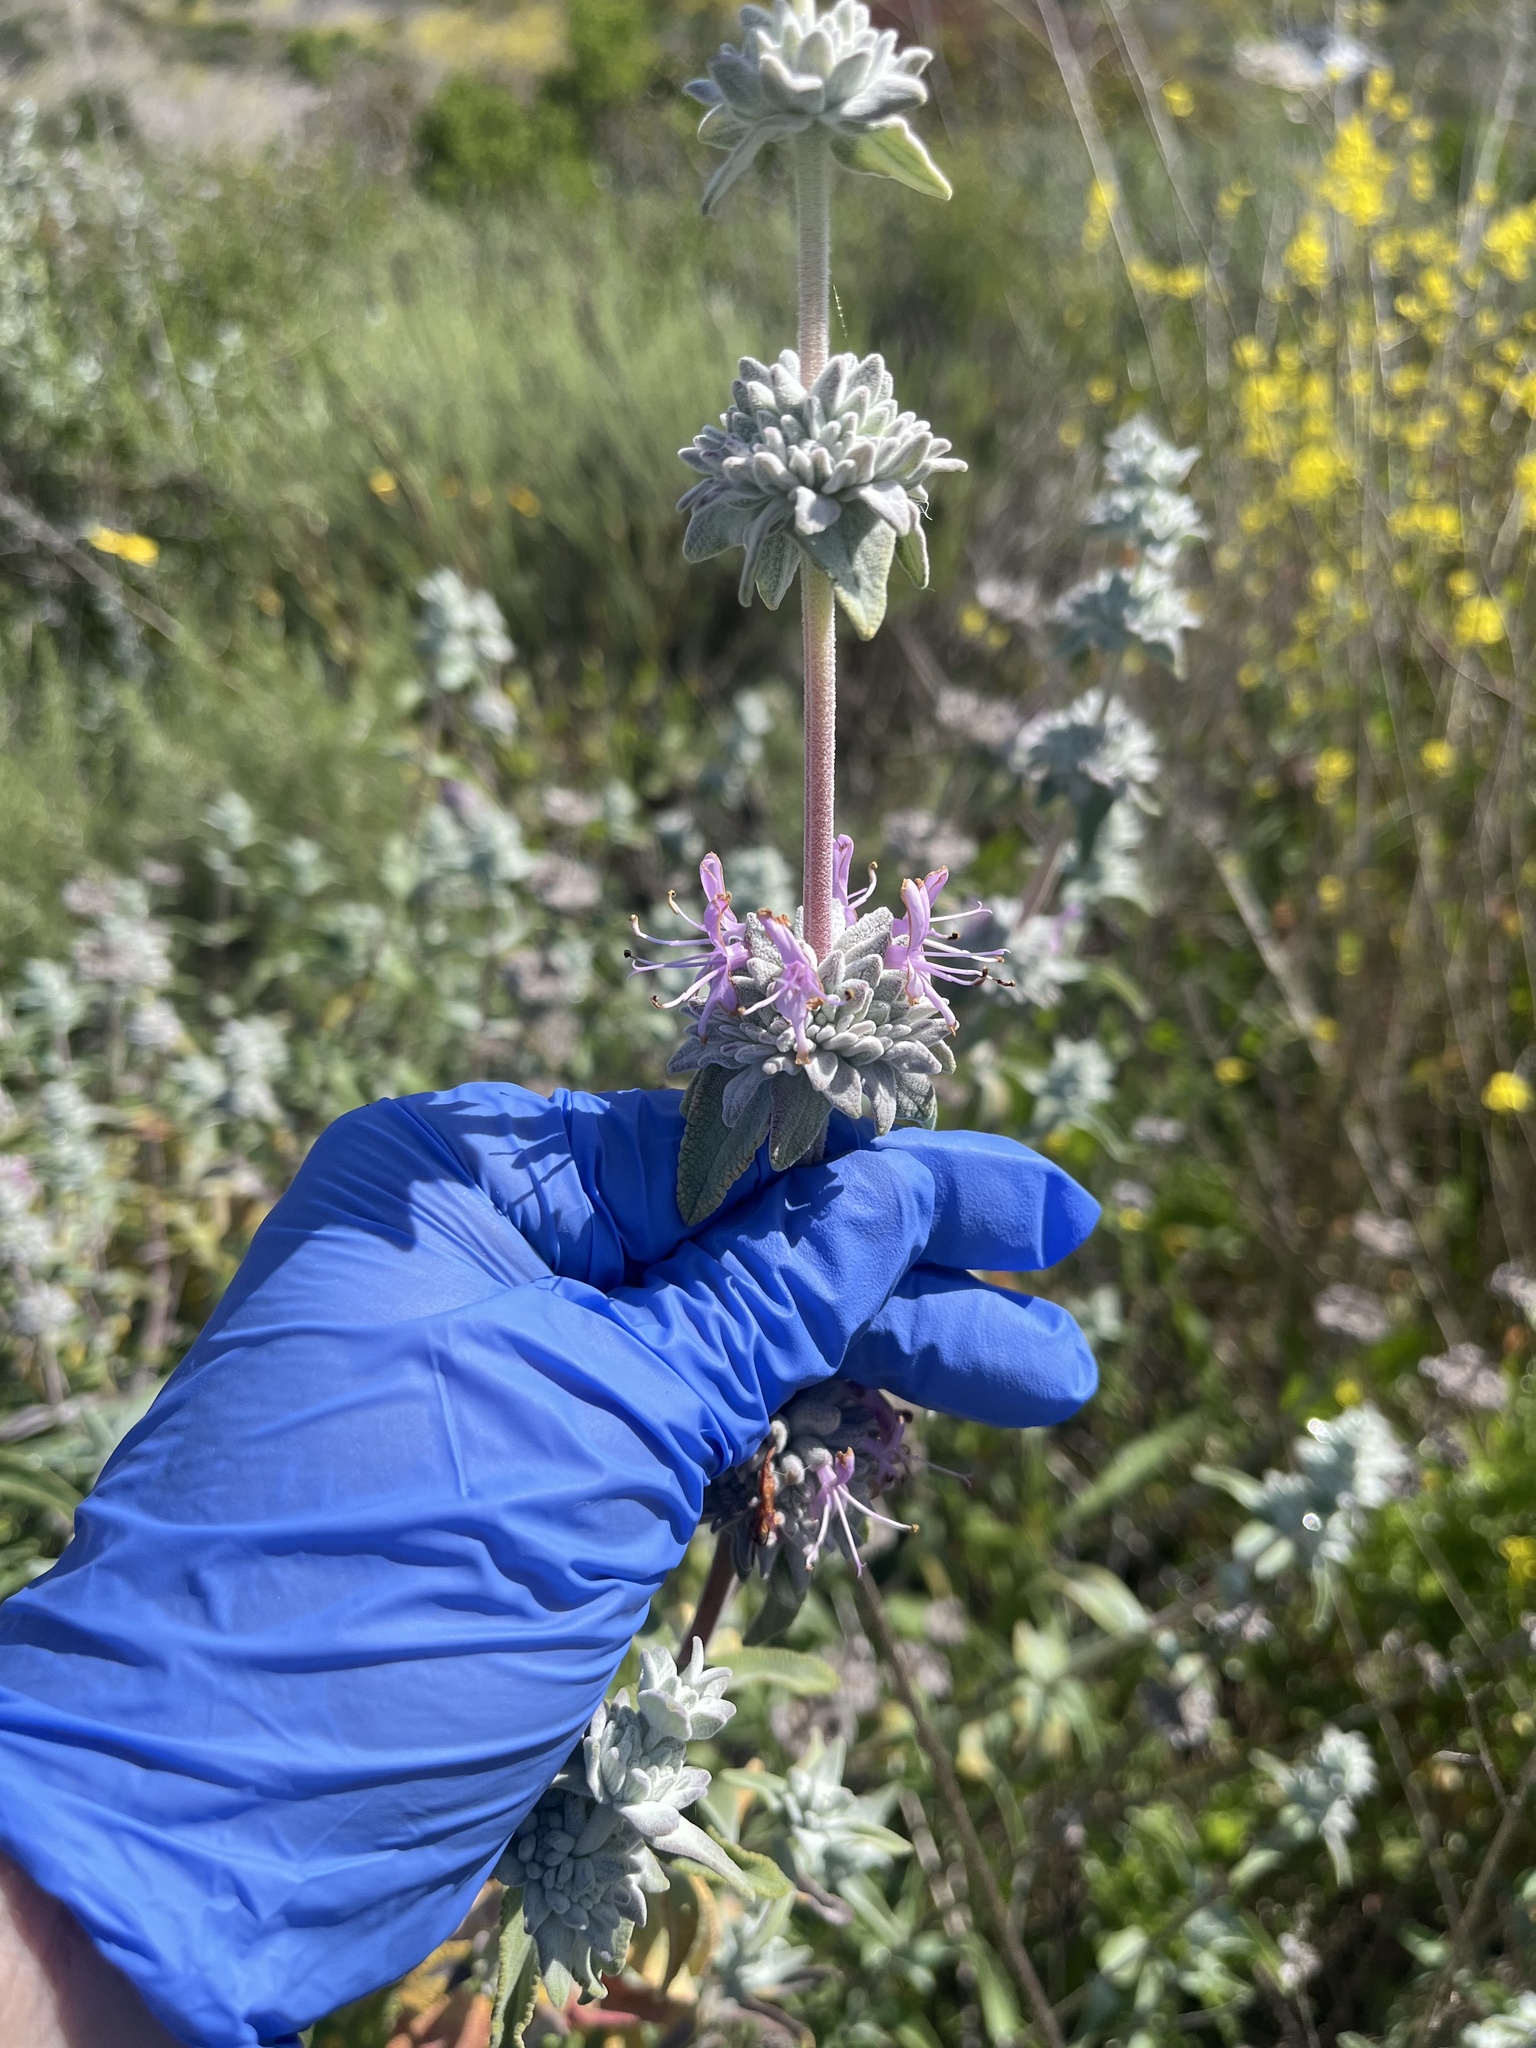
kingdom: Plantae
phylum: Tracheophyta
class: Magnoliopsida
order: Lamiales
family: Lamiaceae
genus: Salvia
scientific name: Salvia leucophylla
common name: Purple sage
